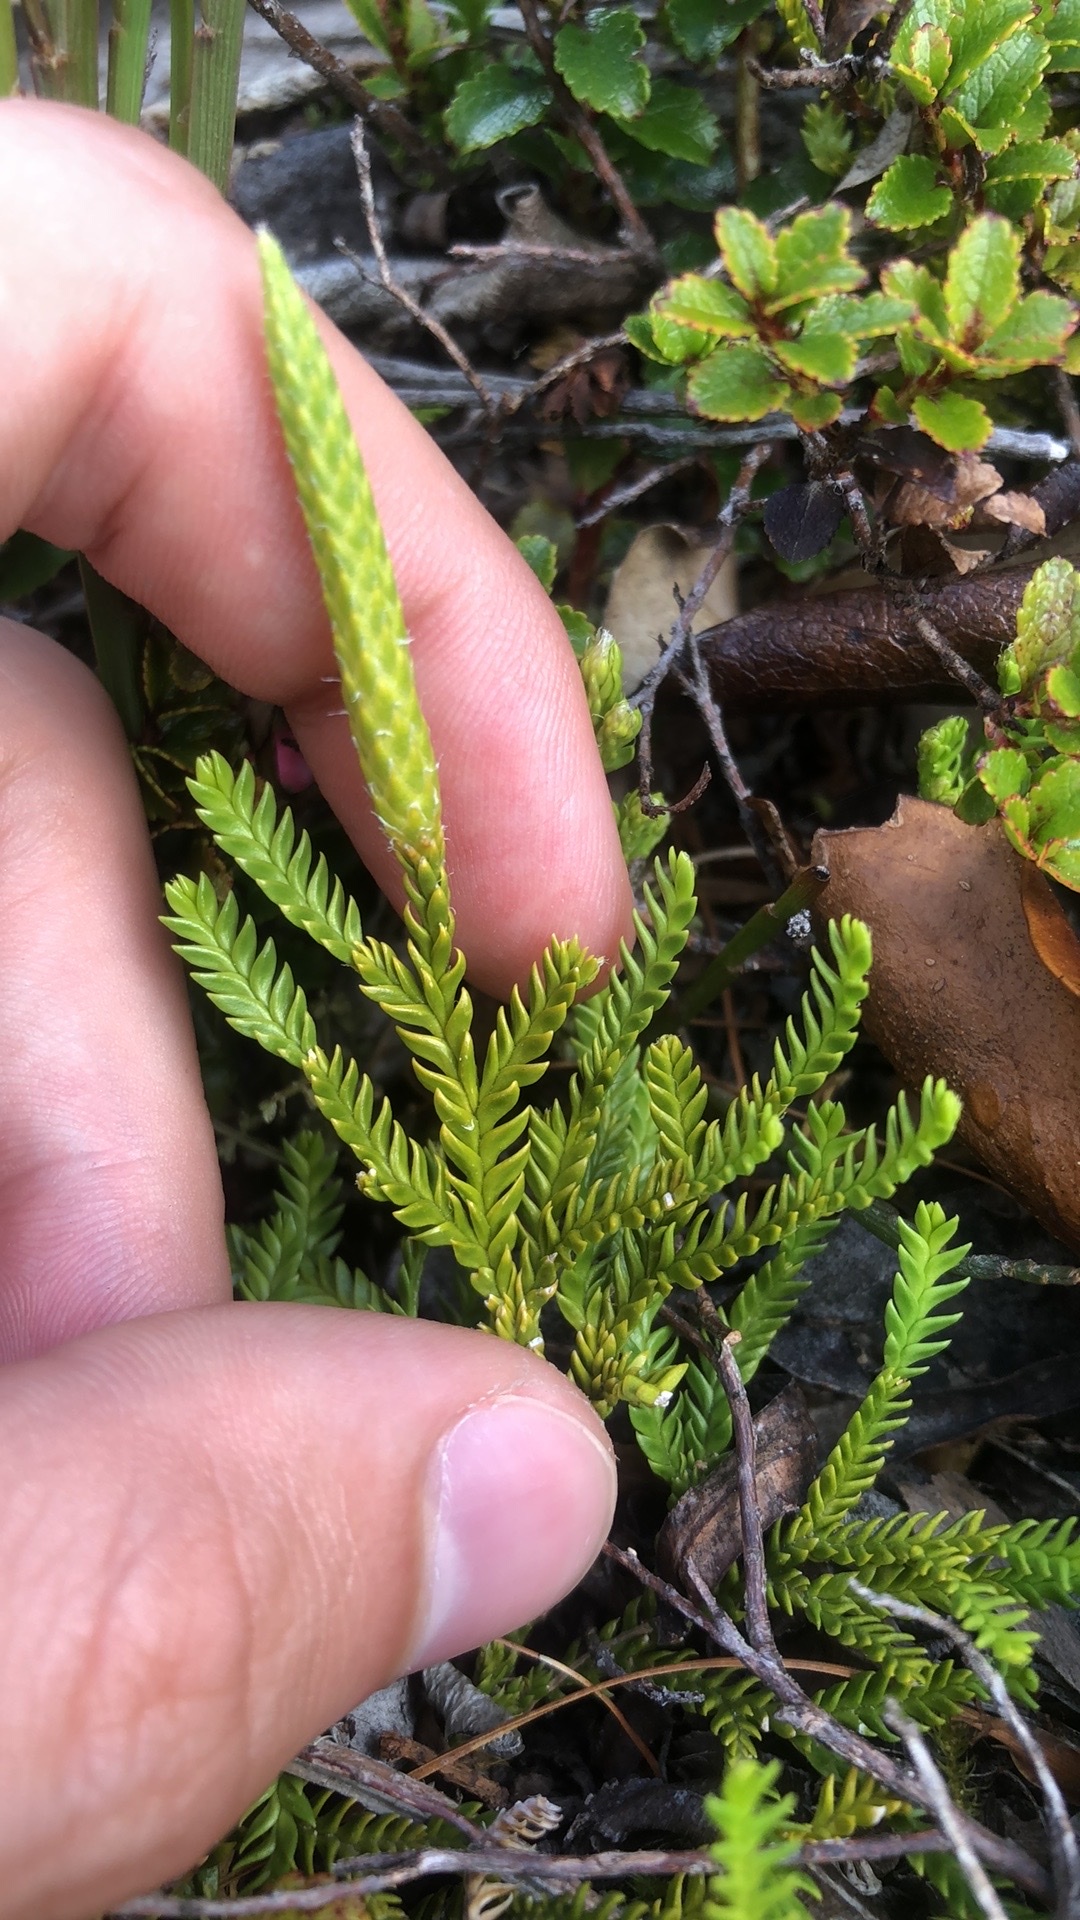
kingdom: Plantae
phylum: Tracheophyta
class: Lycopodiopsida
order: Lycopodiales
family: Lycopodiaceae
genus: Diphasium
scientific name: Diphasium scariosum
